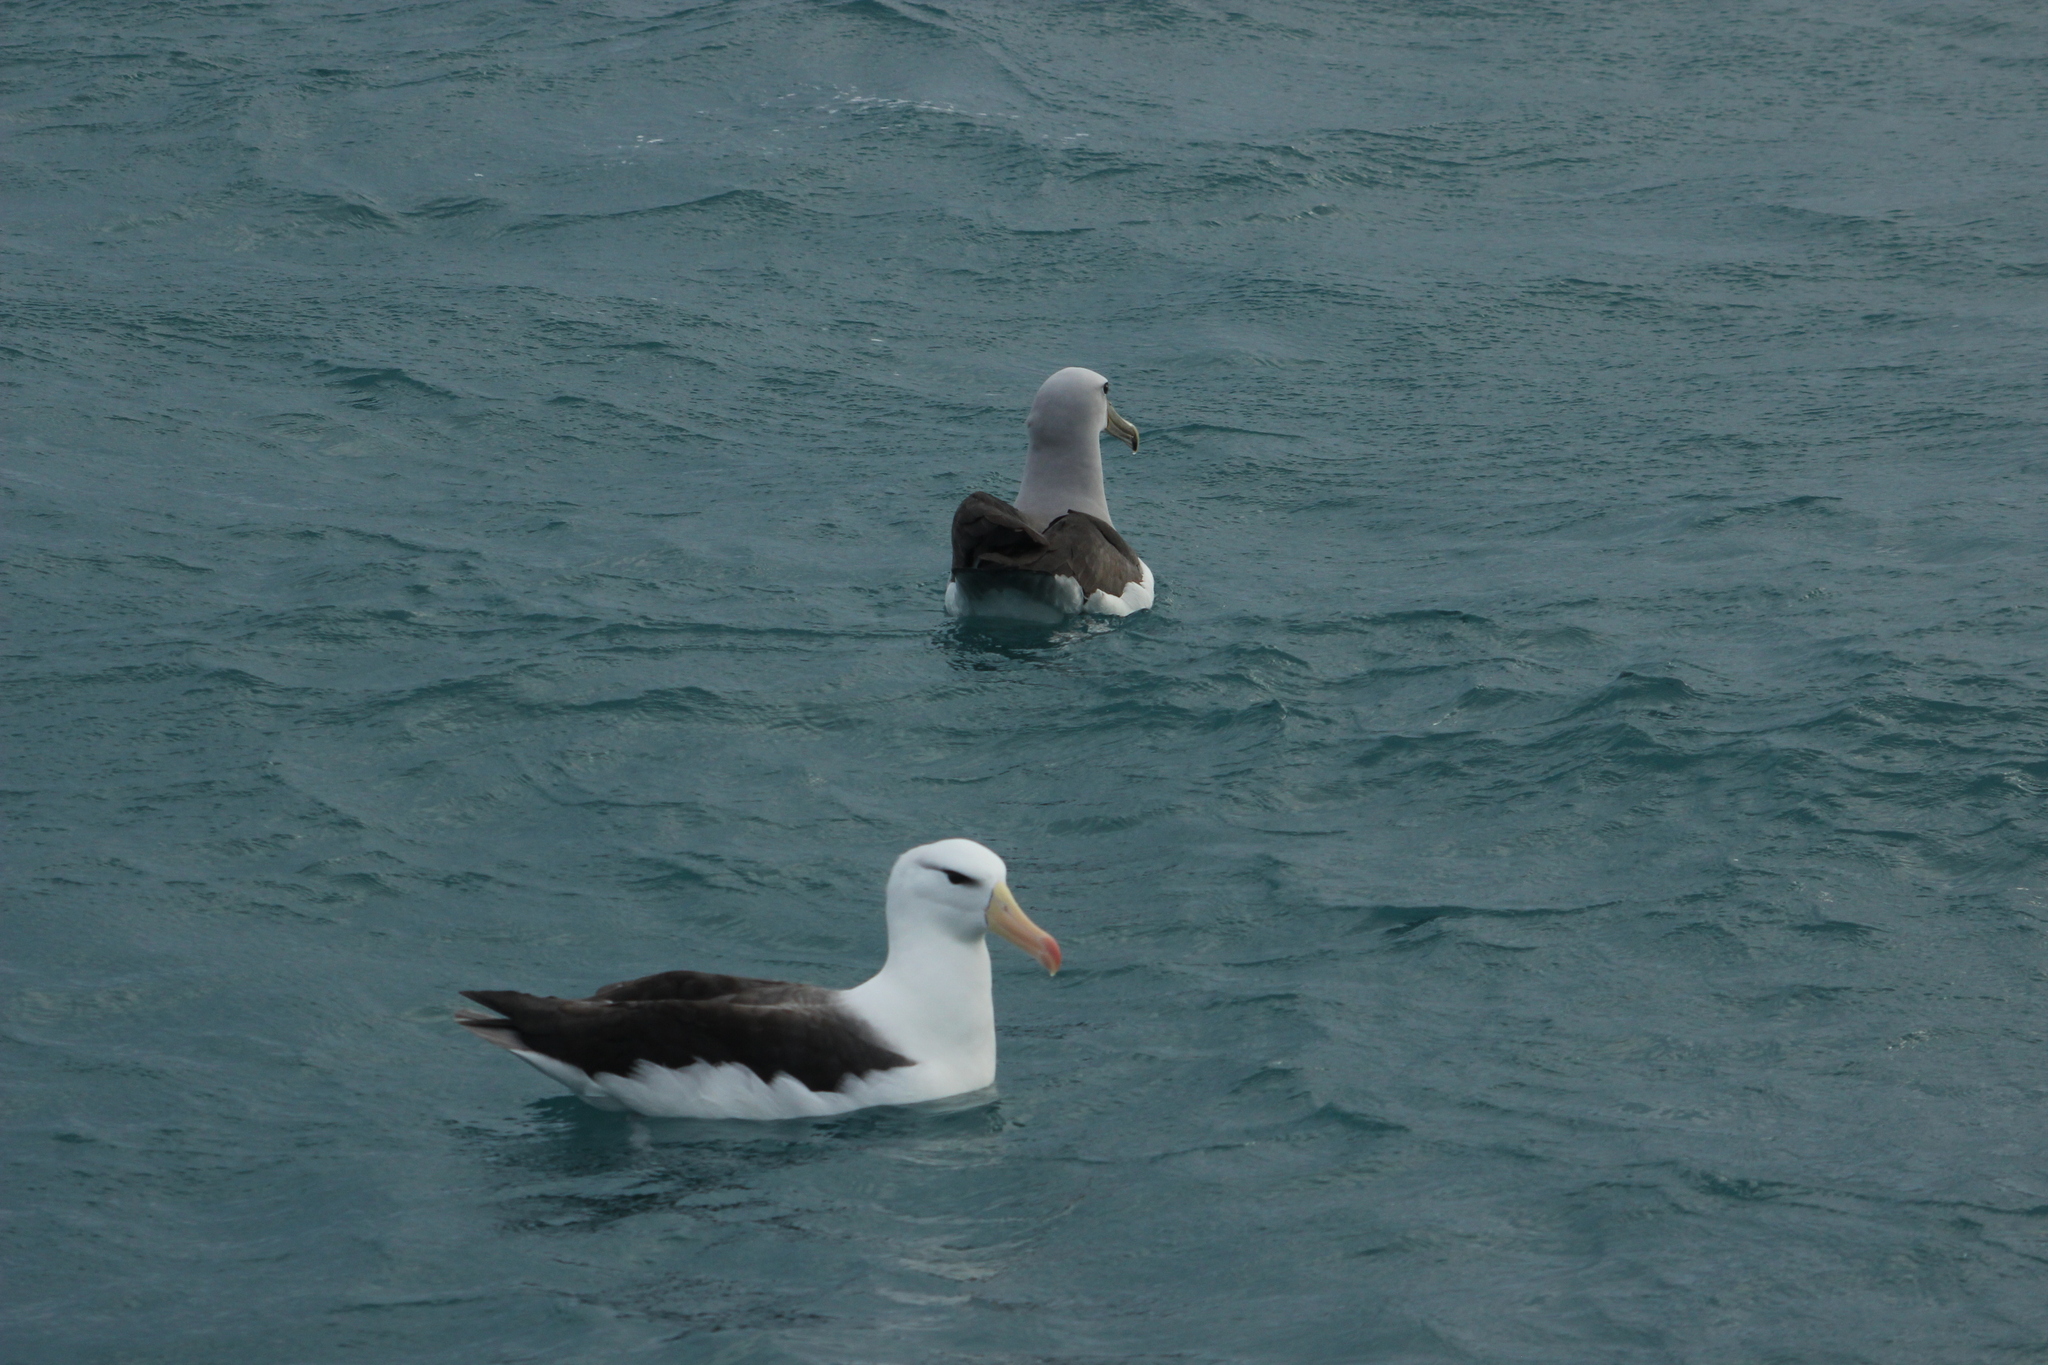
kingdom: Animalia
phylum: Chordata
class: Aves
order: Procellariiformes
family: Diomedeidae
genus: Thalassarche
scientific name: Thalassarche melanophris
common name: Black-browed albatross
